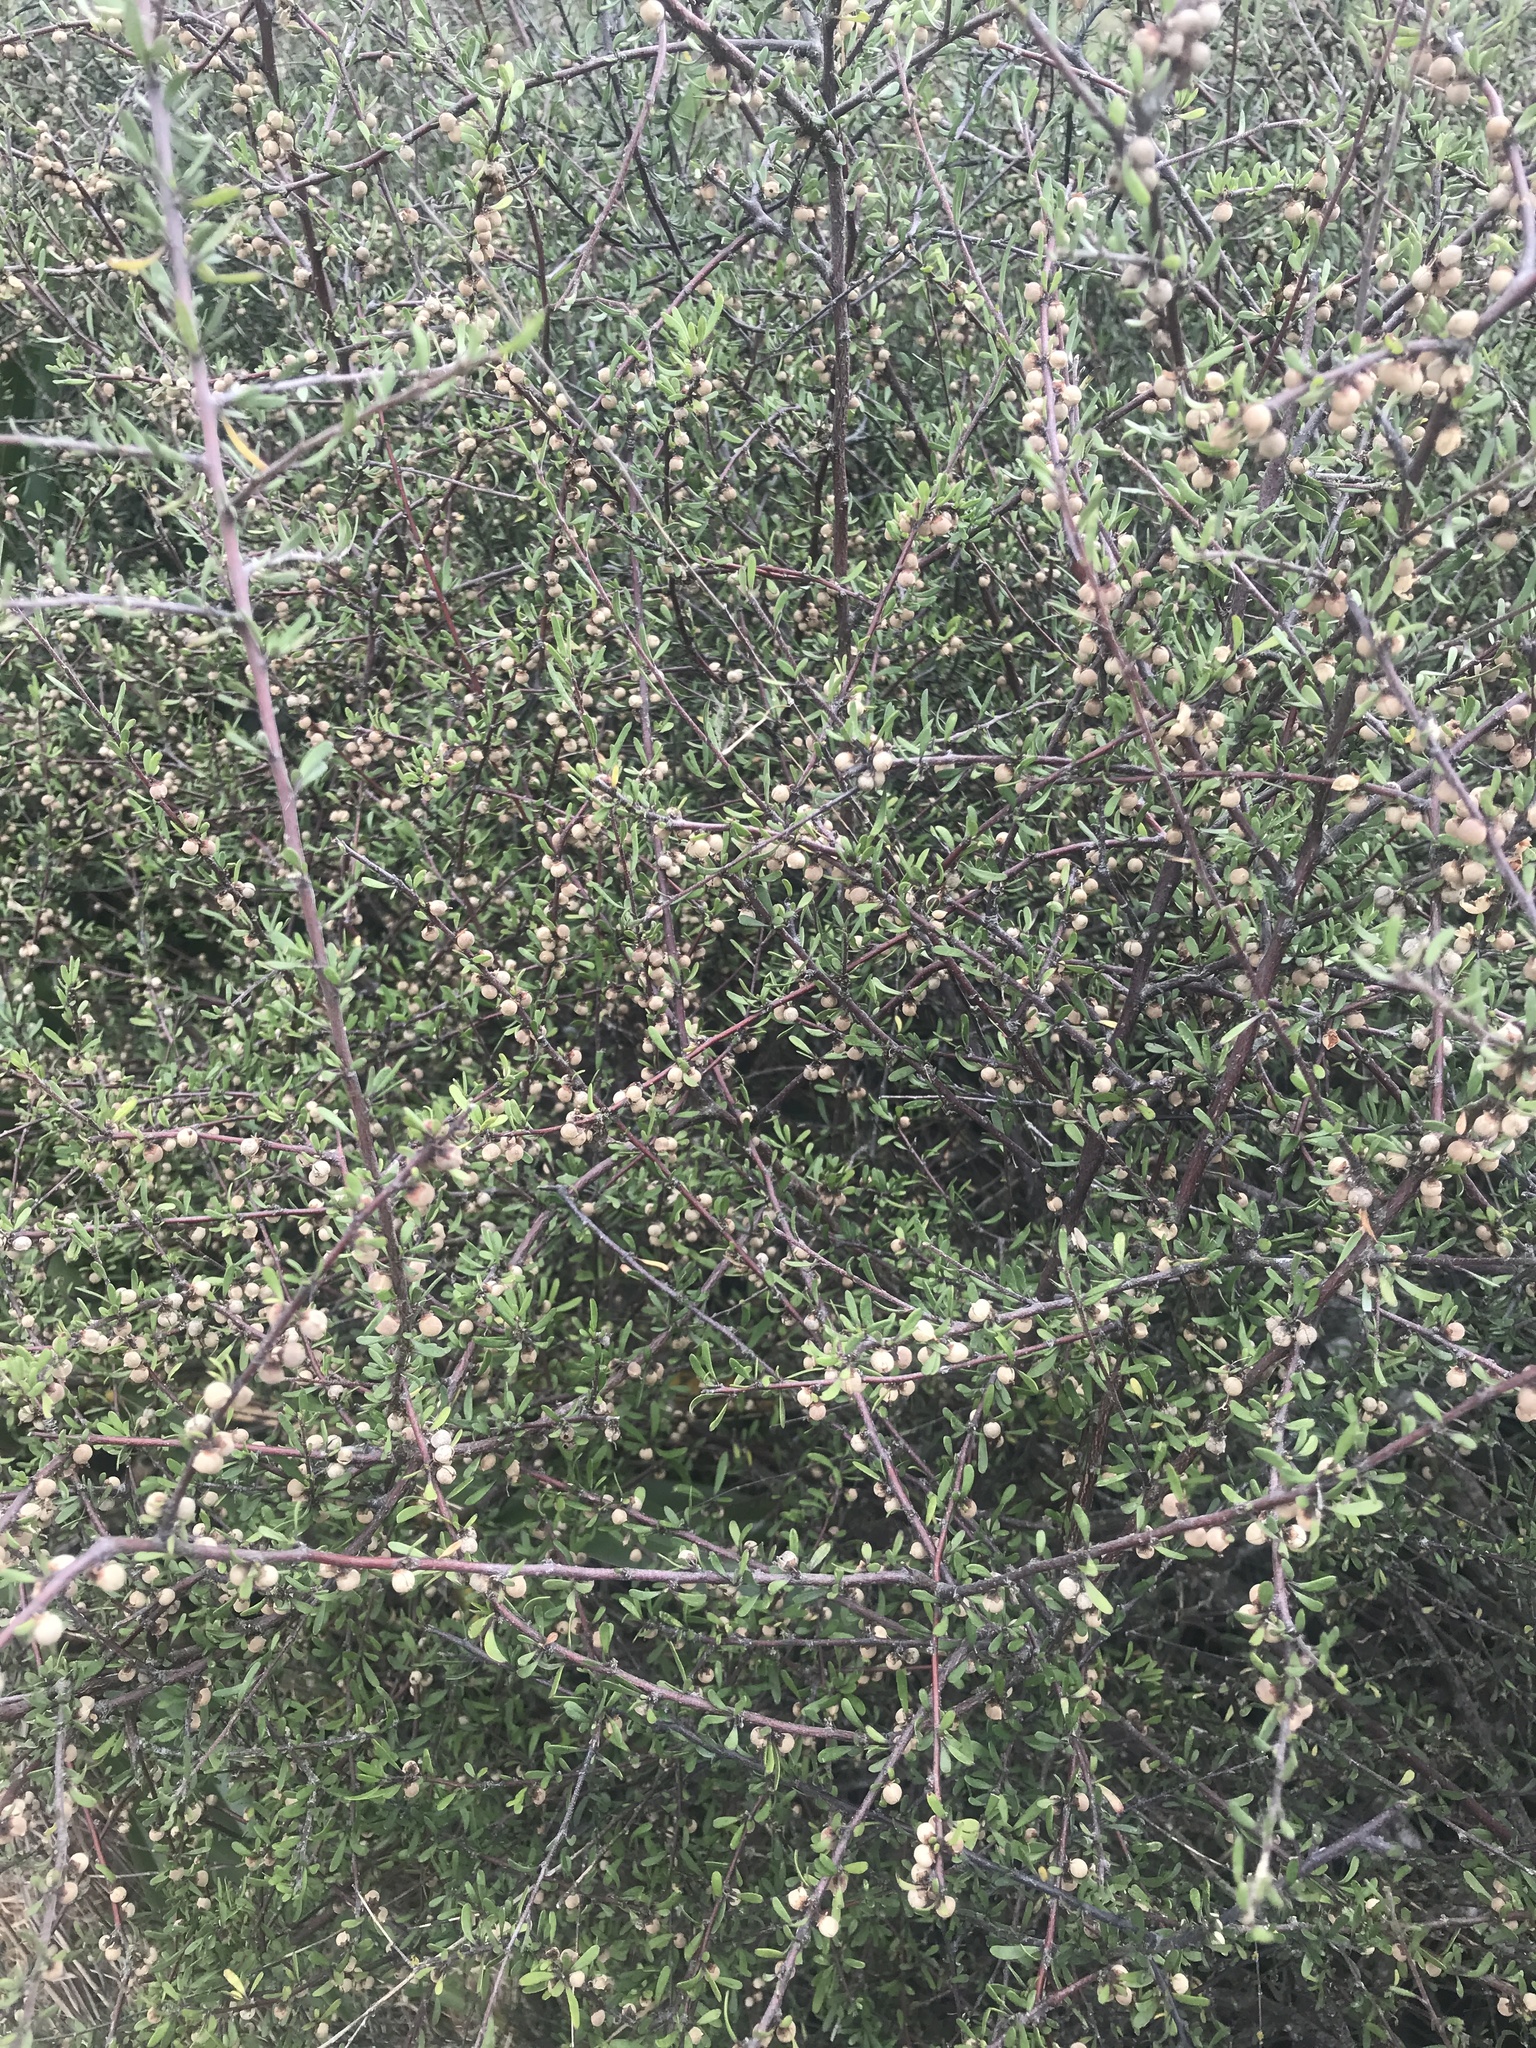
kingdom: Plantae
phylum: Tracheophyta
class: Magnoliopsida
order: Malvales
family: Malvaceae
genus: Plagianthus
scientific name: Plagianthus divaricatus
